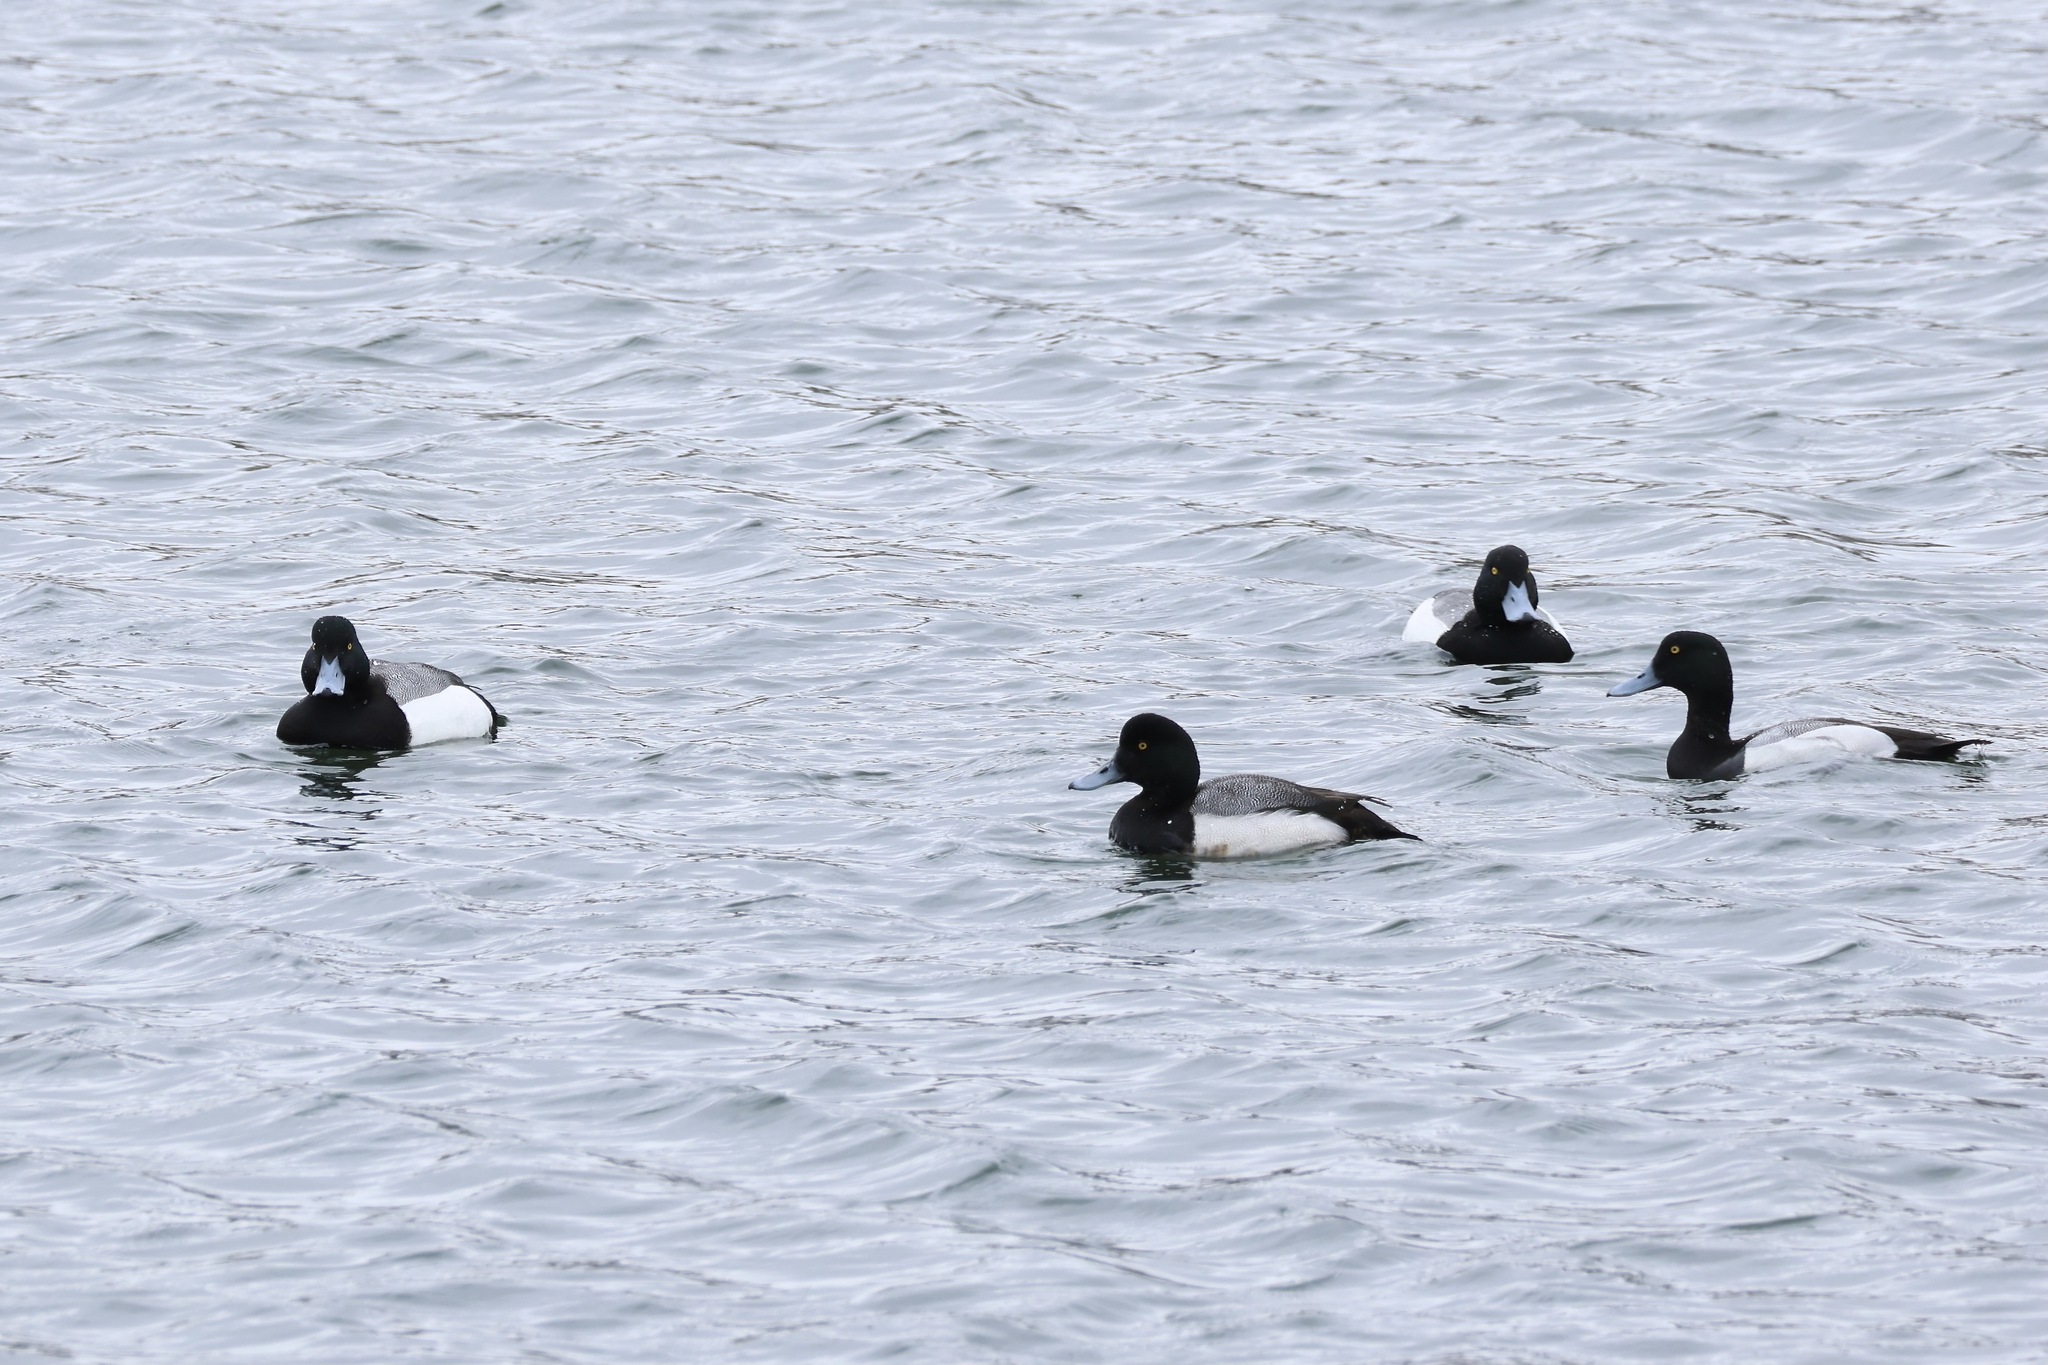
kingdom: Animalia
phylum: Chordata
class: Aves
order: Anseriformes
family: Anatidae
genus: Aythya
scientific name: Aythya marila
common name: Greater scaup
